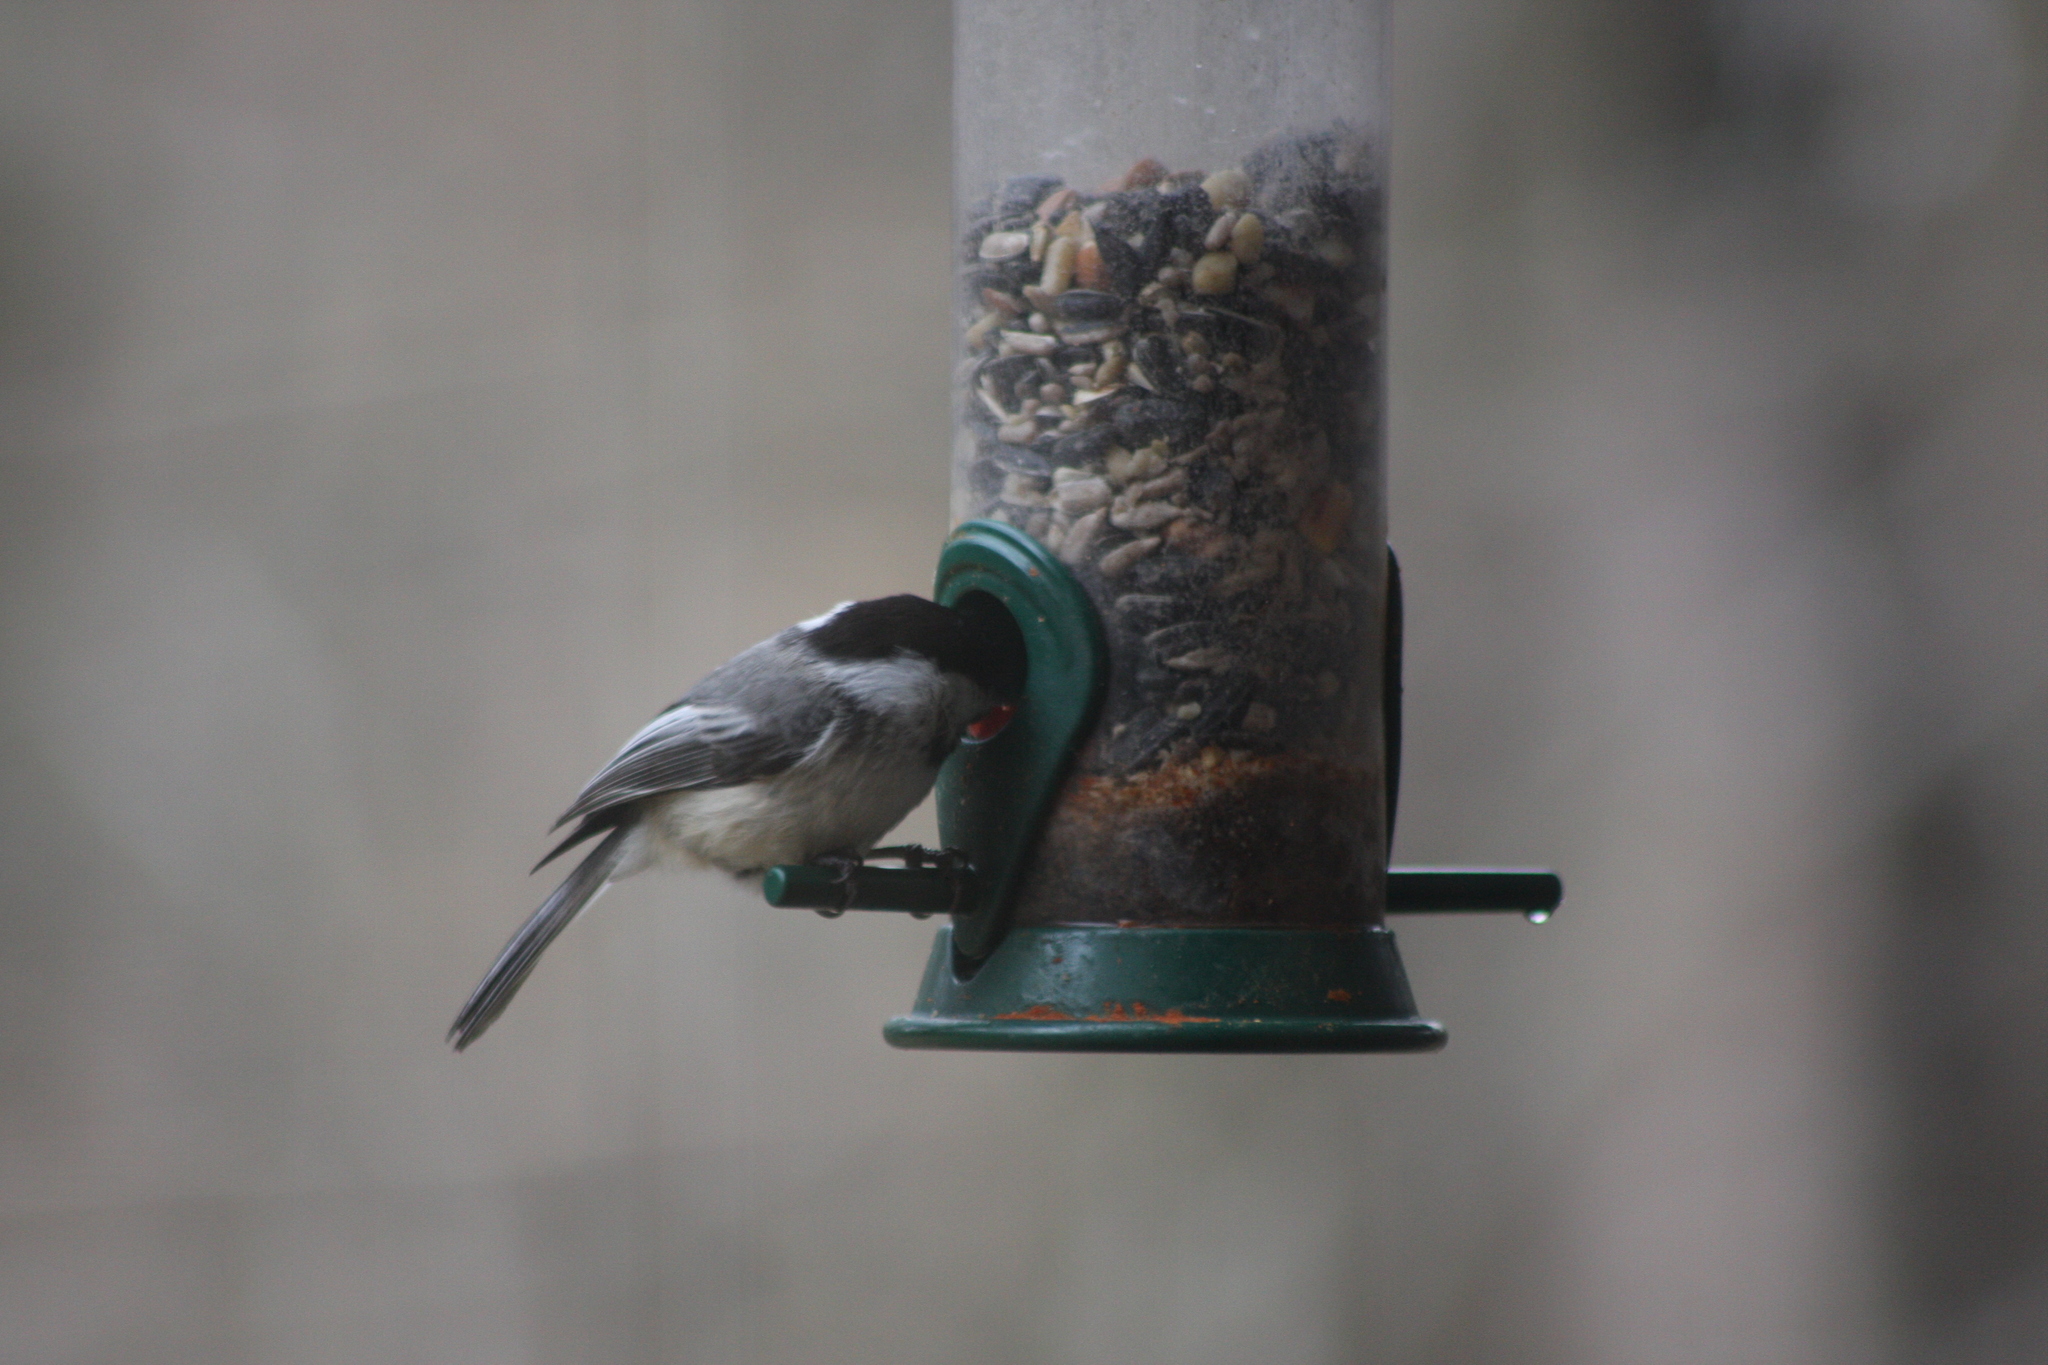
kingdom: Animalia
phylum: Chordata
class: Aves
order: Passeriformes
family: Paridae
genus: Poecile
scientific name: Poecile atricapillus
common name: Black-capped chickadee
